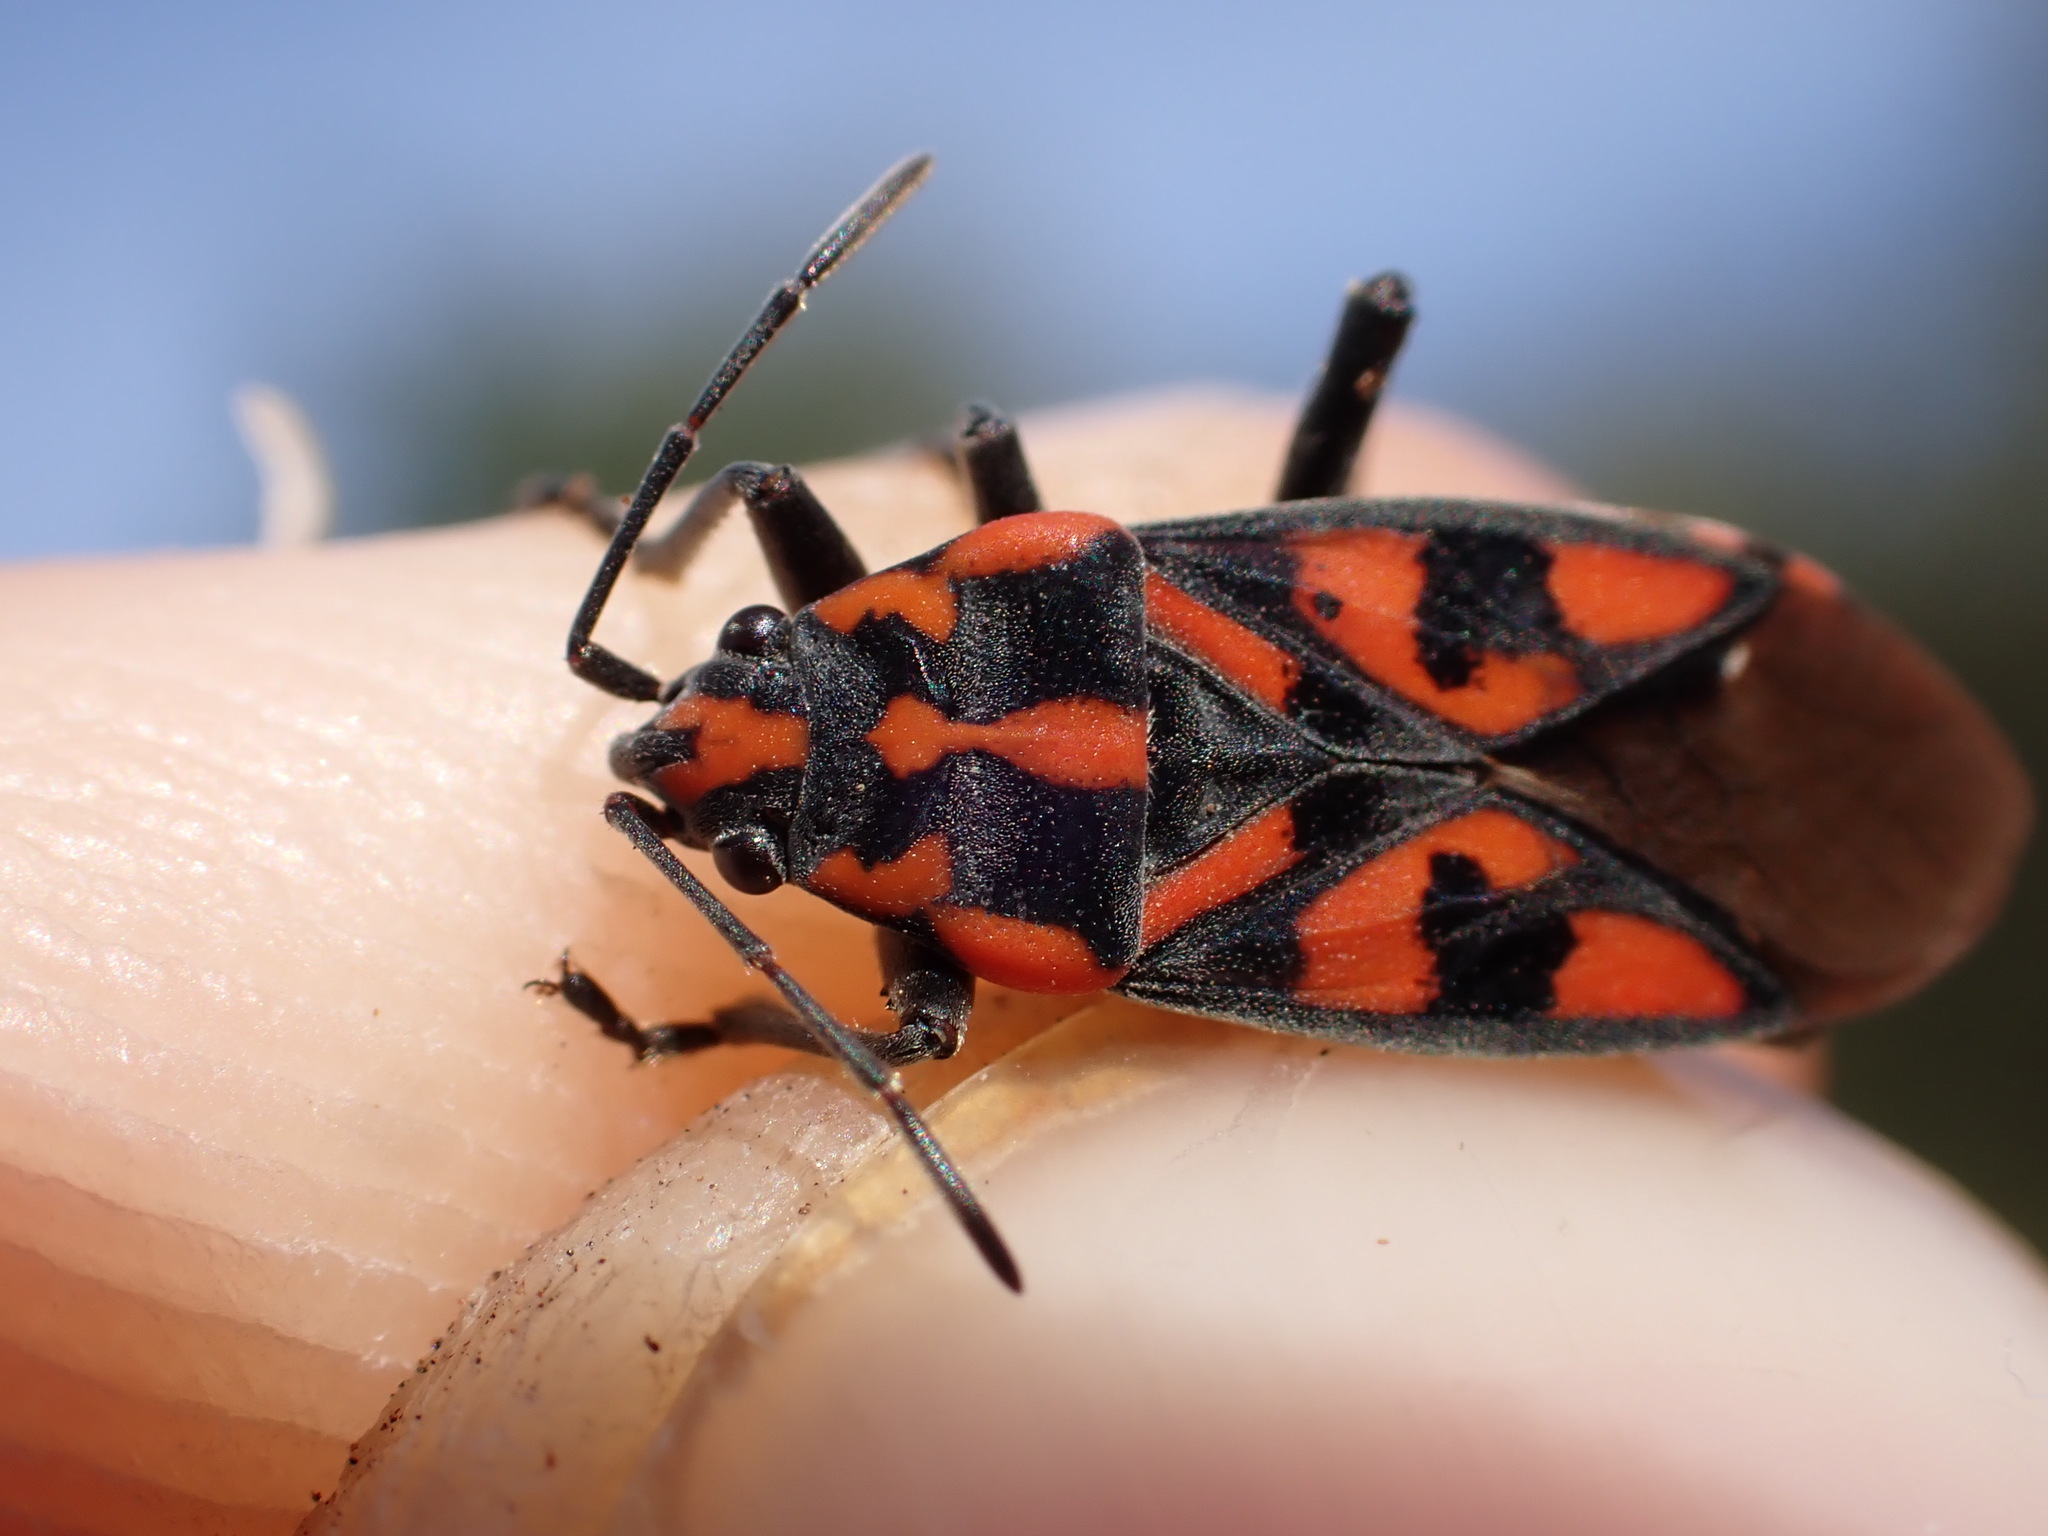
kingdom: Animalia
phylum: Arthropoda
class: Insecta
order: Hemiptera
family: Lygaeidae
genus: Spilostethus
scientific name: Spilostethus saxatilis
